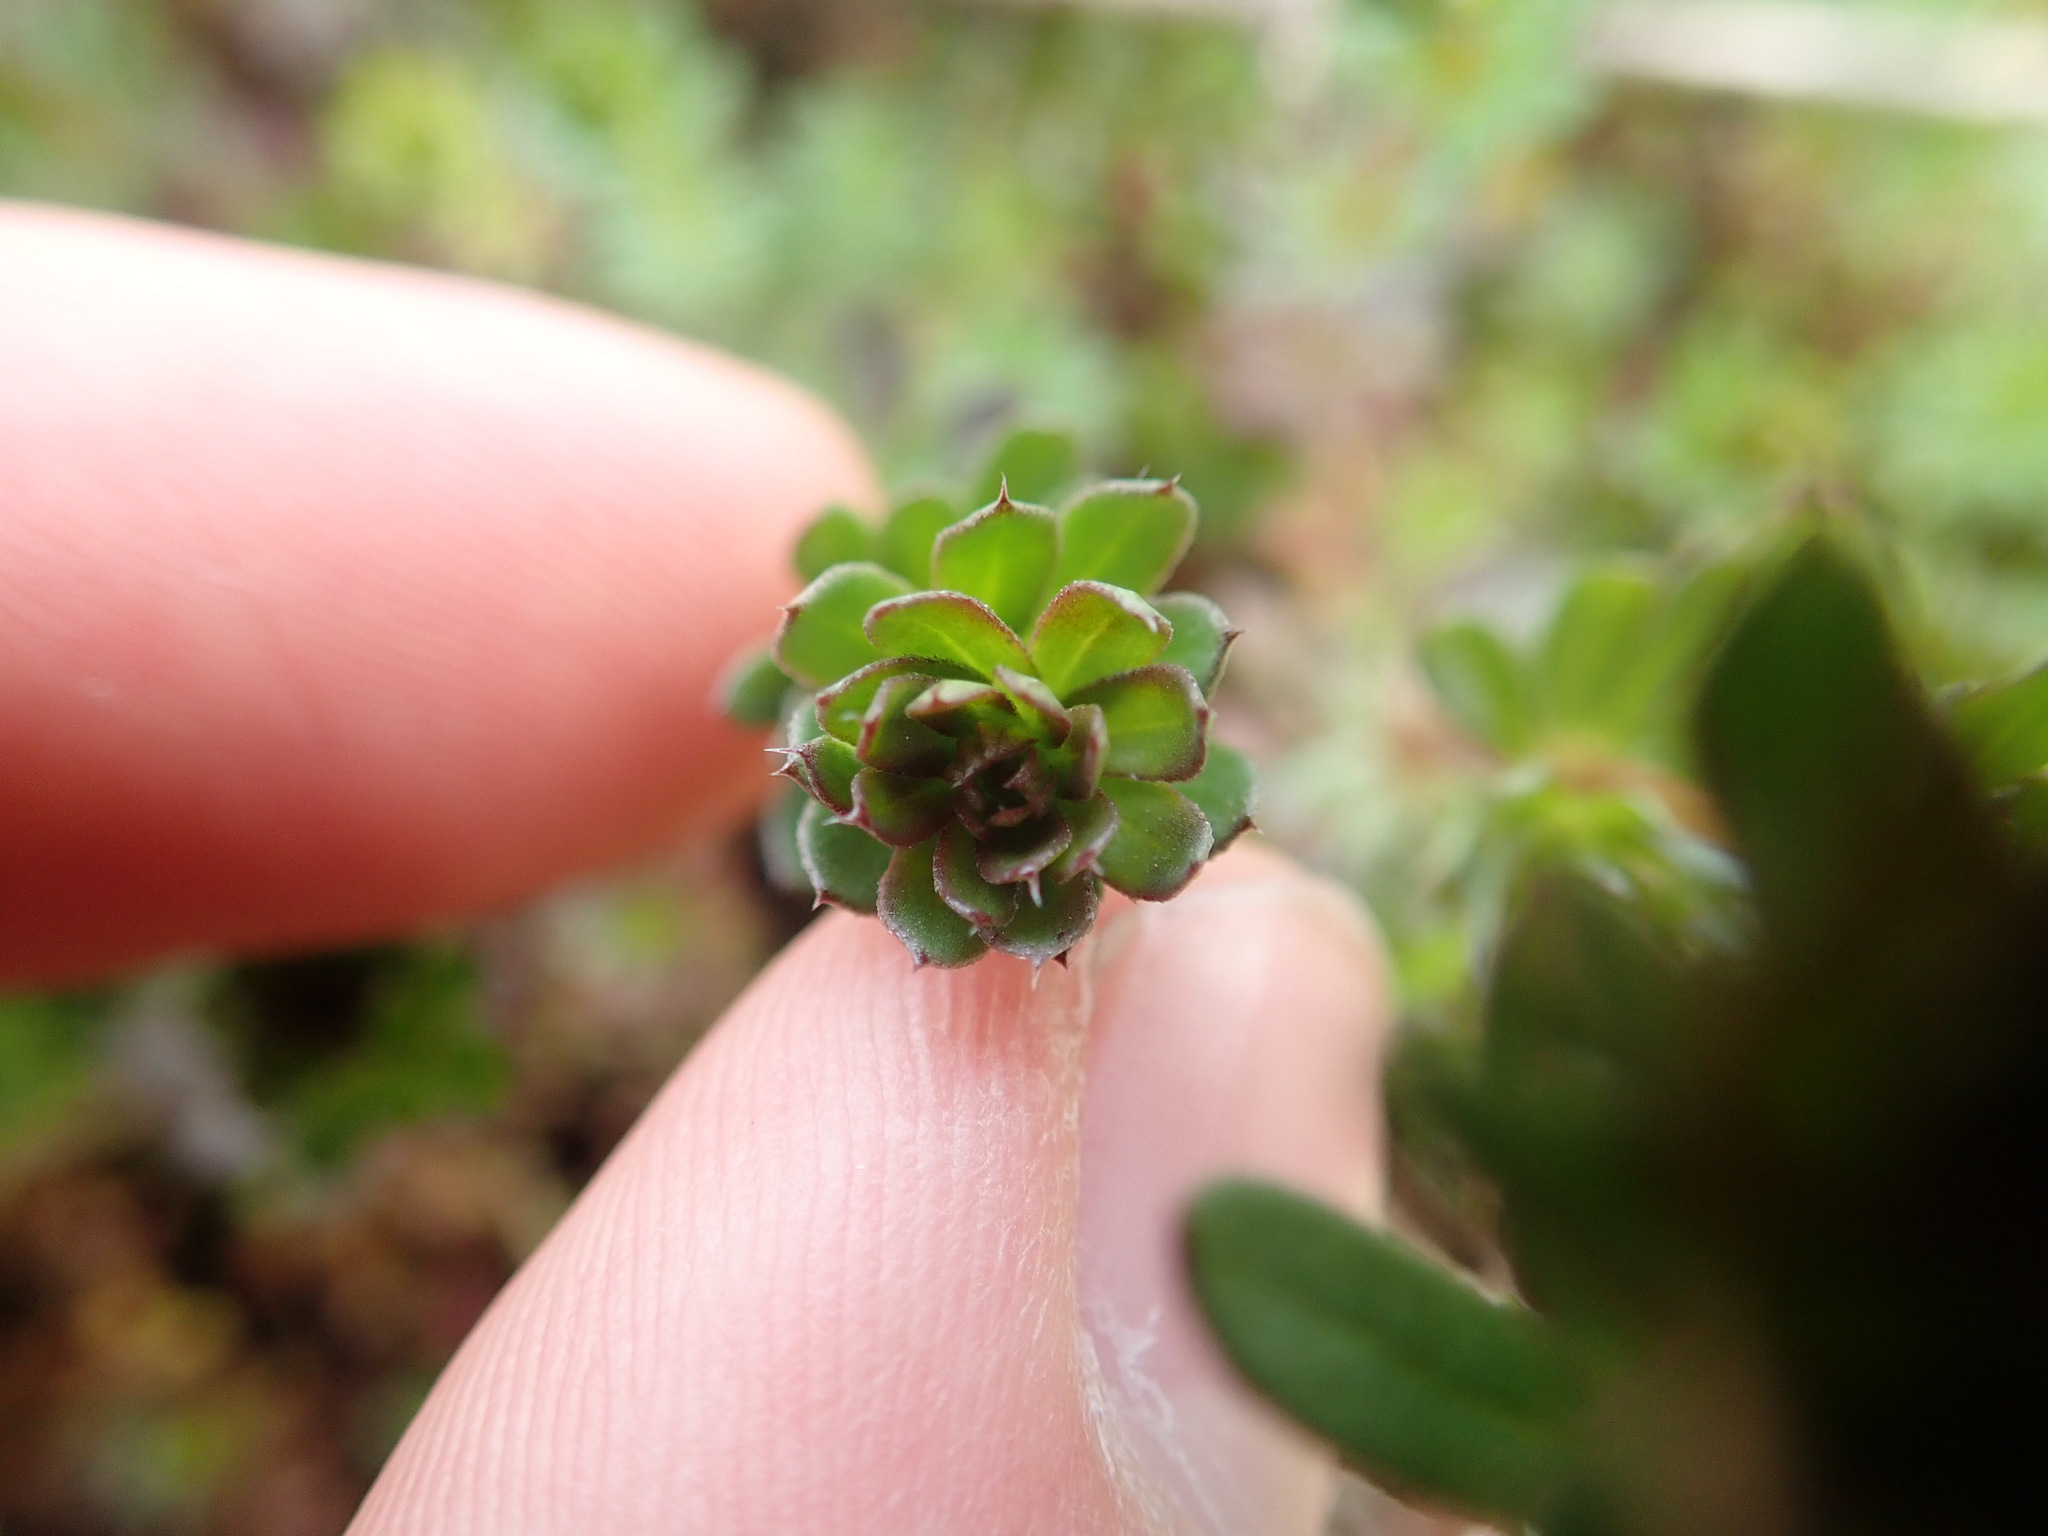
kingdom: Plantae
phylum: Tracheophyta
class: Magnoliopsida
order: Gentianales
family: Rubiaceae
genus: Galium
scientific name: Galium mollugo
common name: Hedge bedstraw
